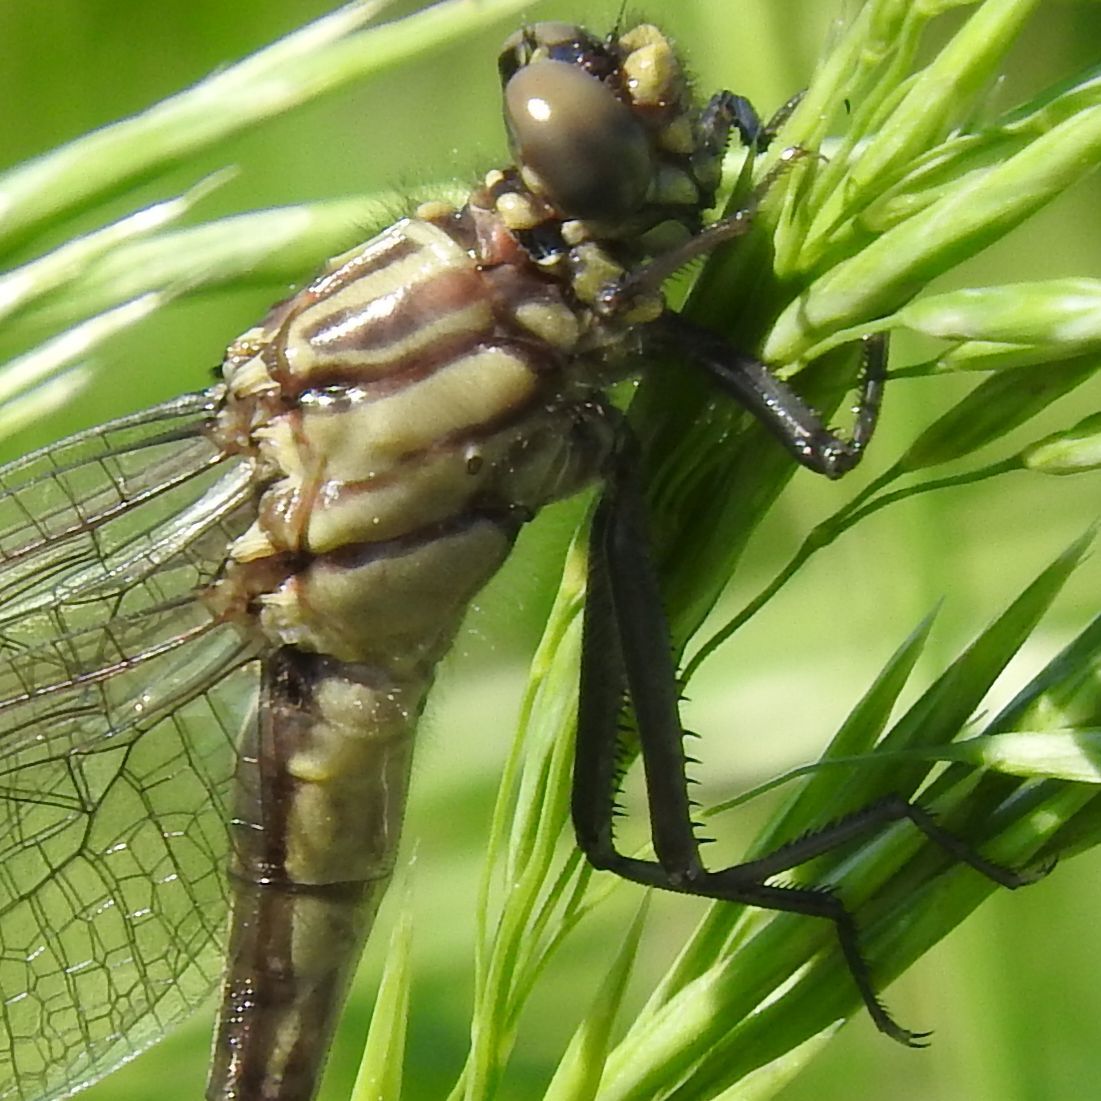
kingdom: Animalia
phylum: Arthropoda
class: Insecta
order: Odonata
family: Gomphidae
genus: Gomphurus
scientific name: Gomphurus vastus
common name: Cobra clubtail
